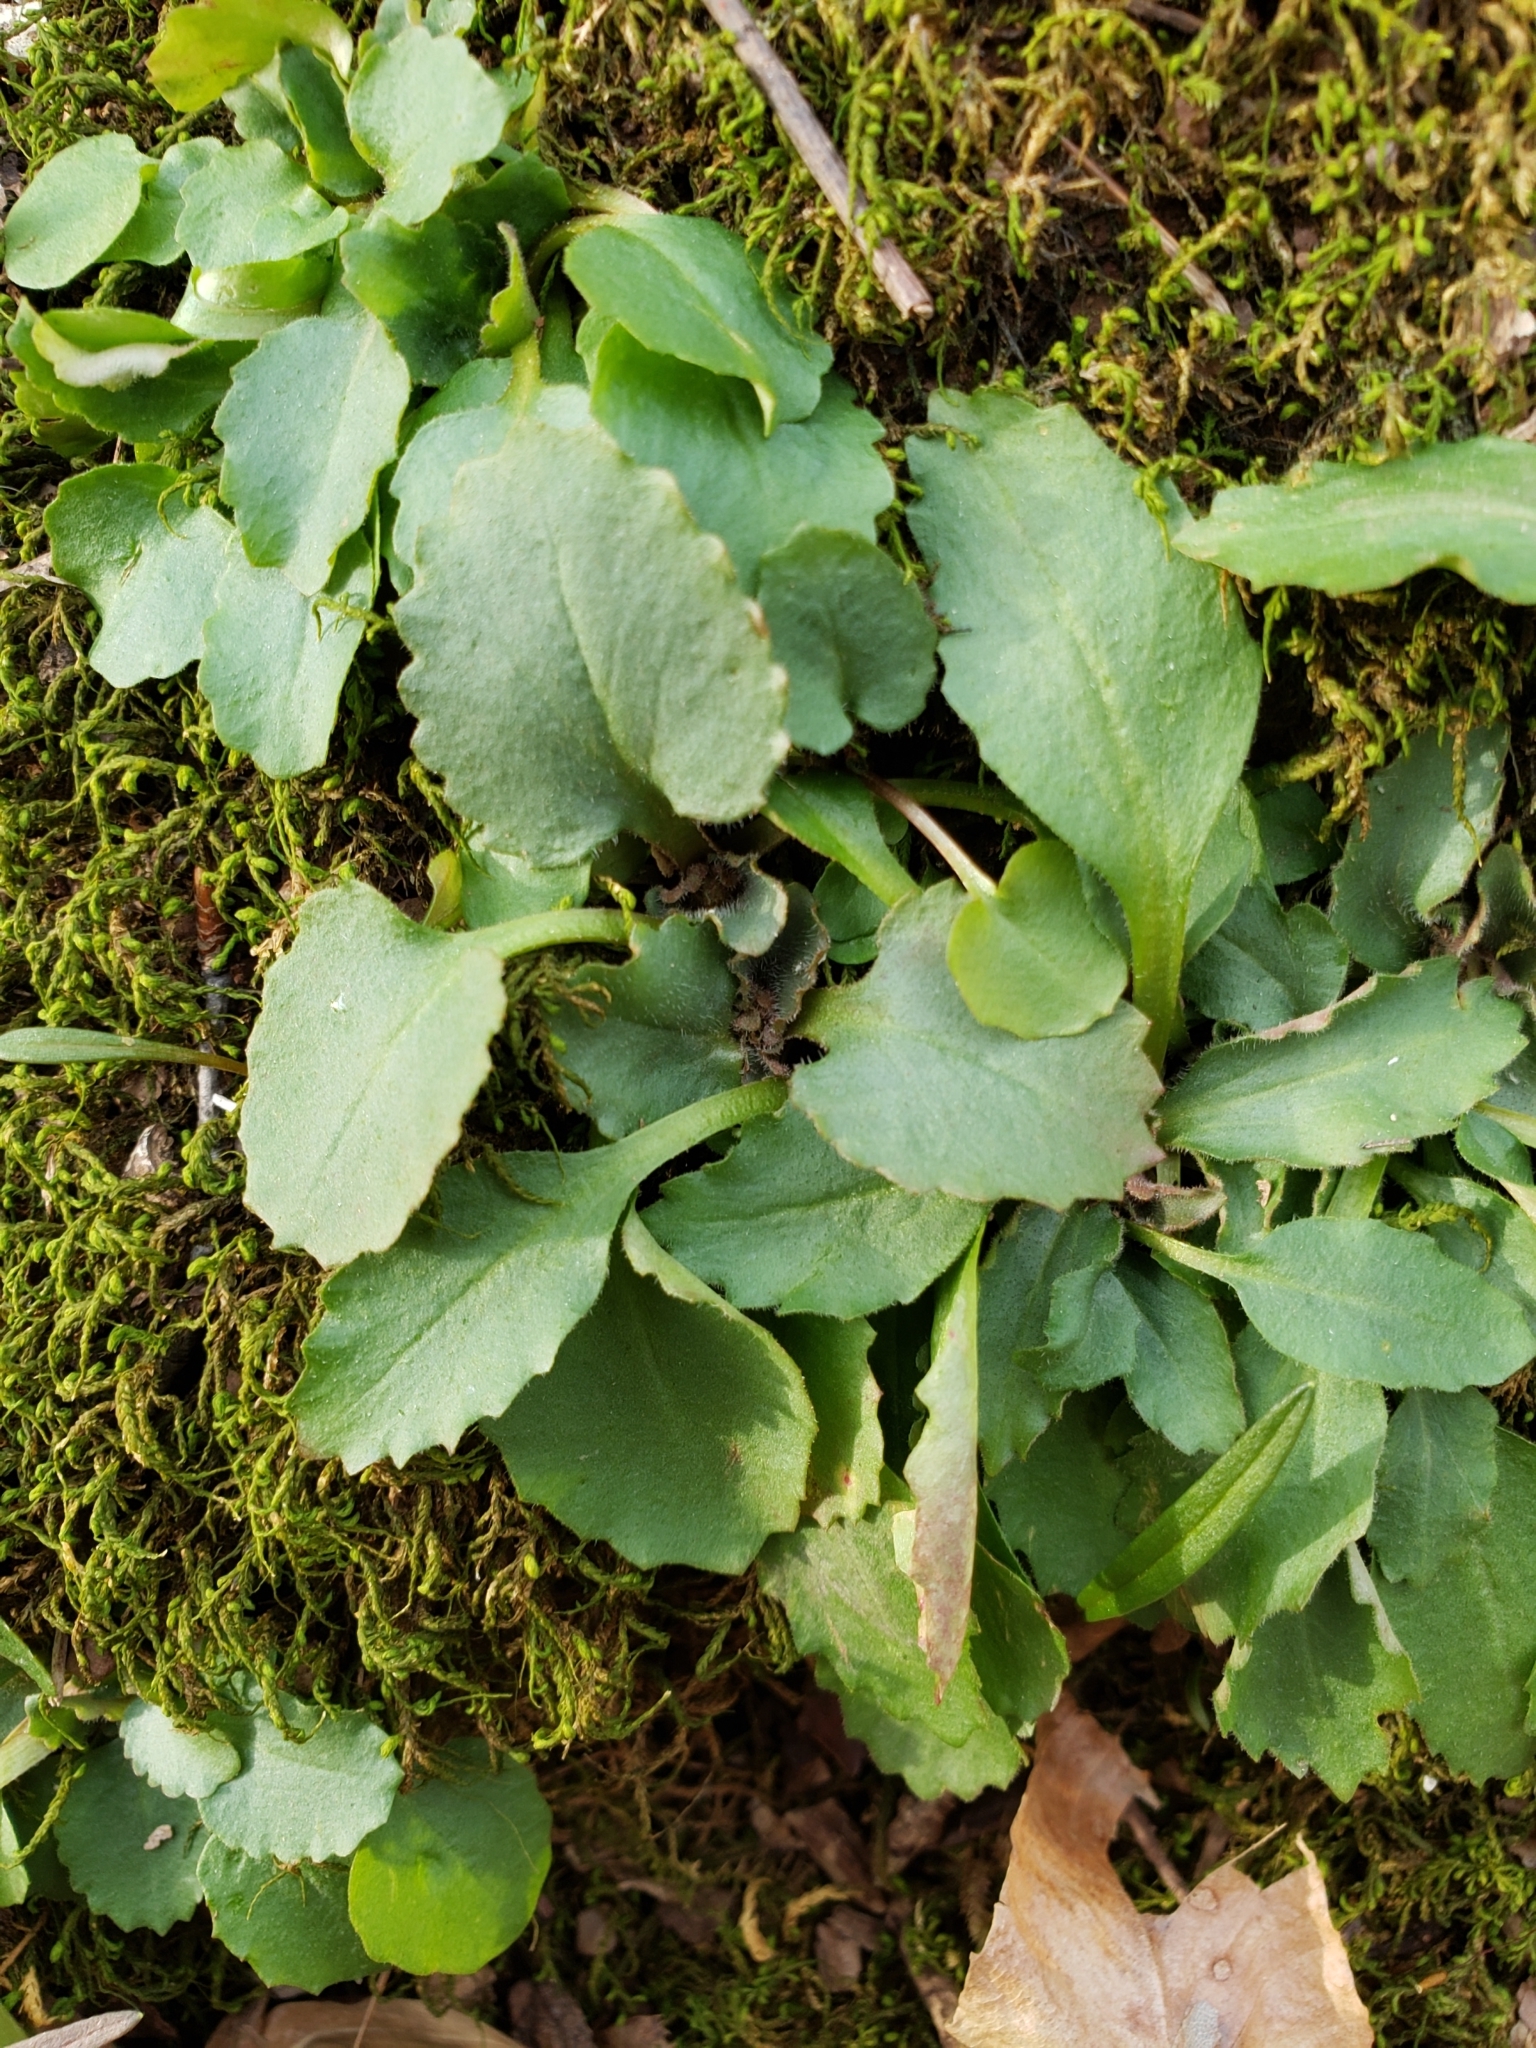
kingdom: Plantae
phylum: Tracheophyta
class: Magnoliopsida
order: Saxifragales
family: Saxifragaceae
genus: Micranthes
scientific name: Micranthes virginiensis
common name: Early saxifrage
